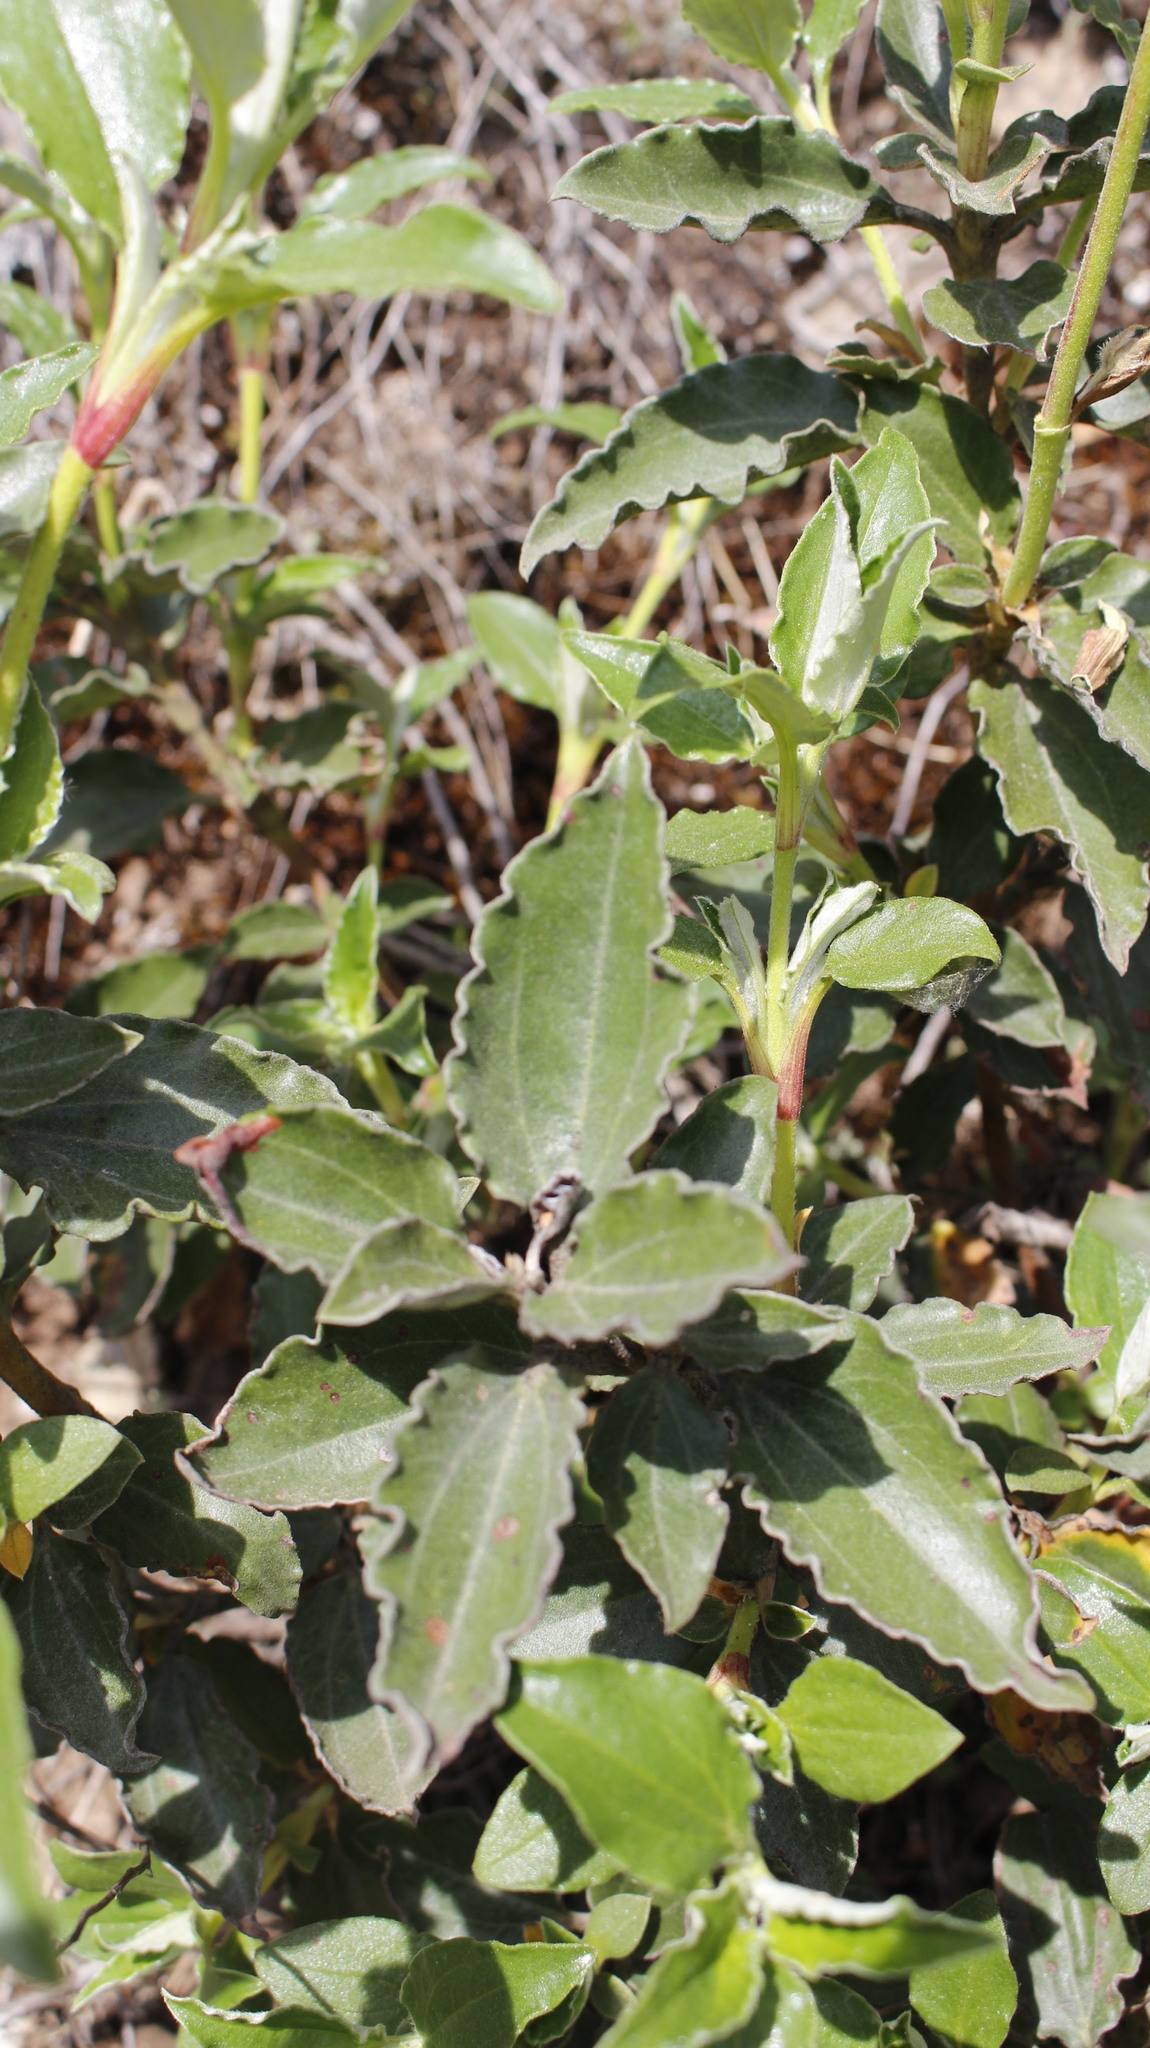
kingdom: Plantae
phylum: Tracheophyta
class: Magnoliopsida
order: Malvales
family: Cistaceae
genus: Cistus
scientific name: Cistus laurifolius
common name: Laurel-leaved cistus
